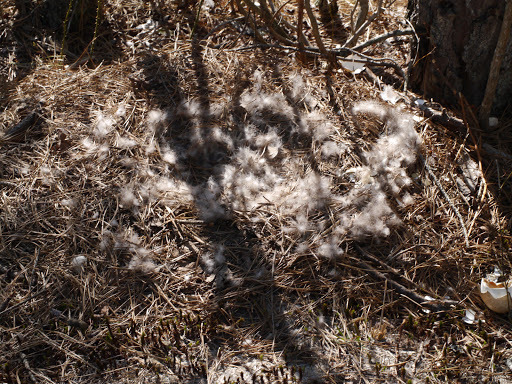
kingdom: Animalia
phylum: Chordata
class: Aves
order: Anseriformes
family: Anatidae
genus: Branta
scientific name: Branta canadensis
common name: Canada goose
